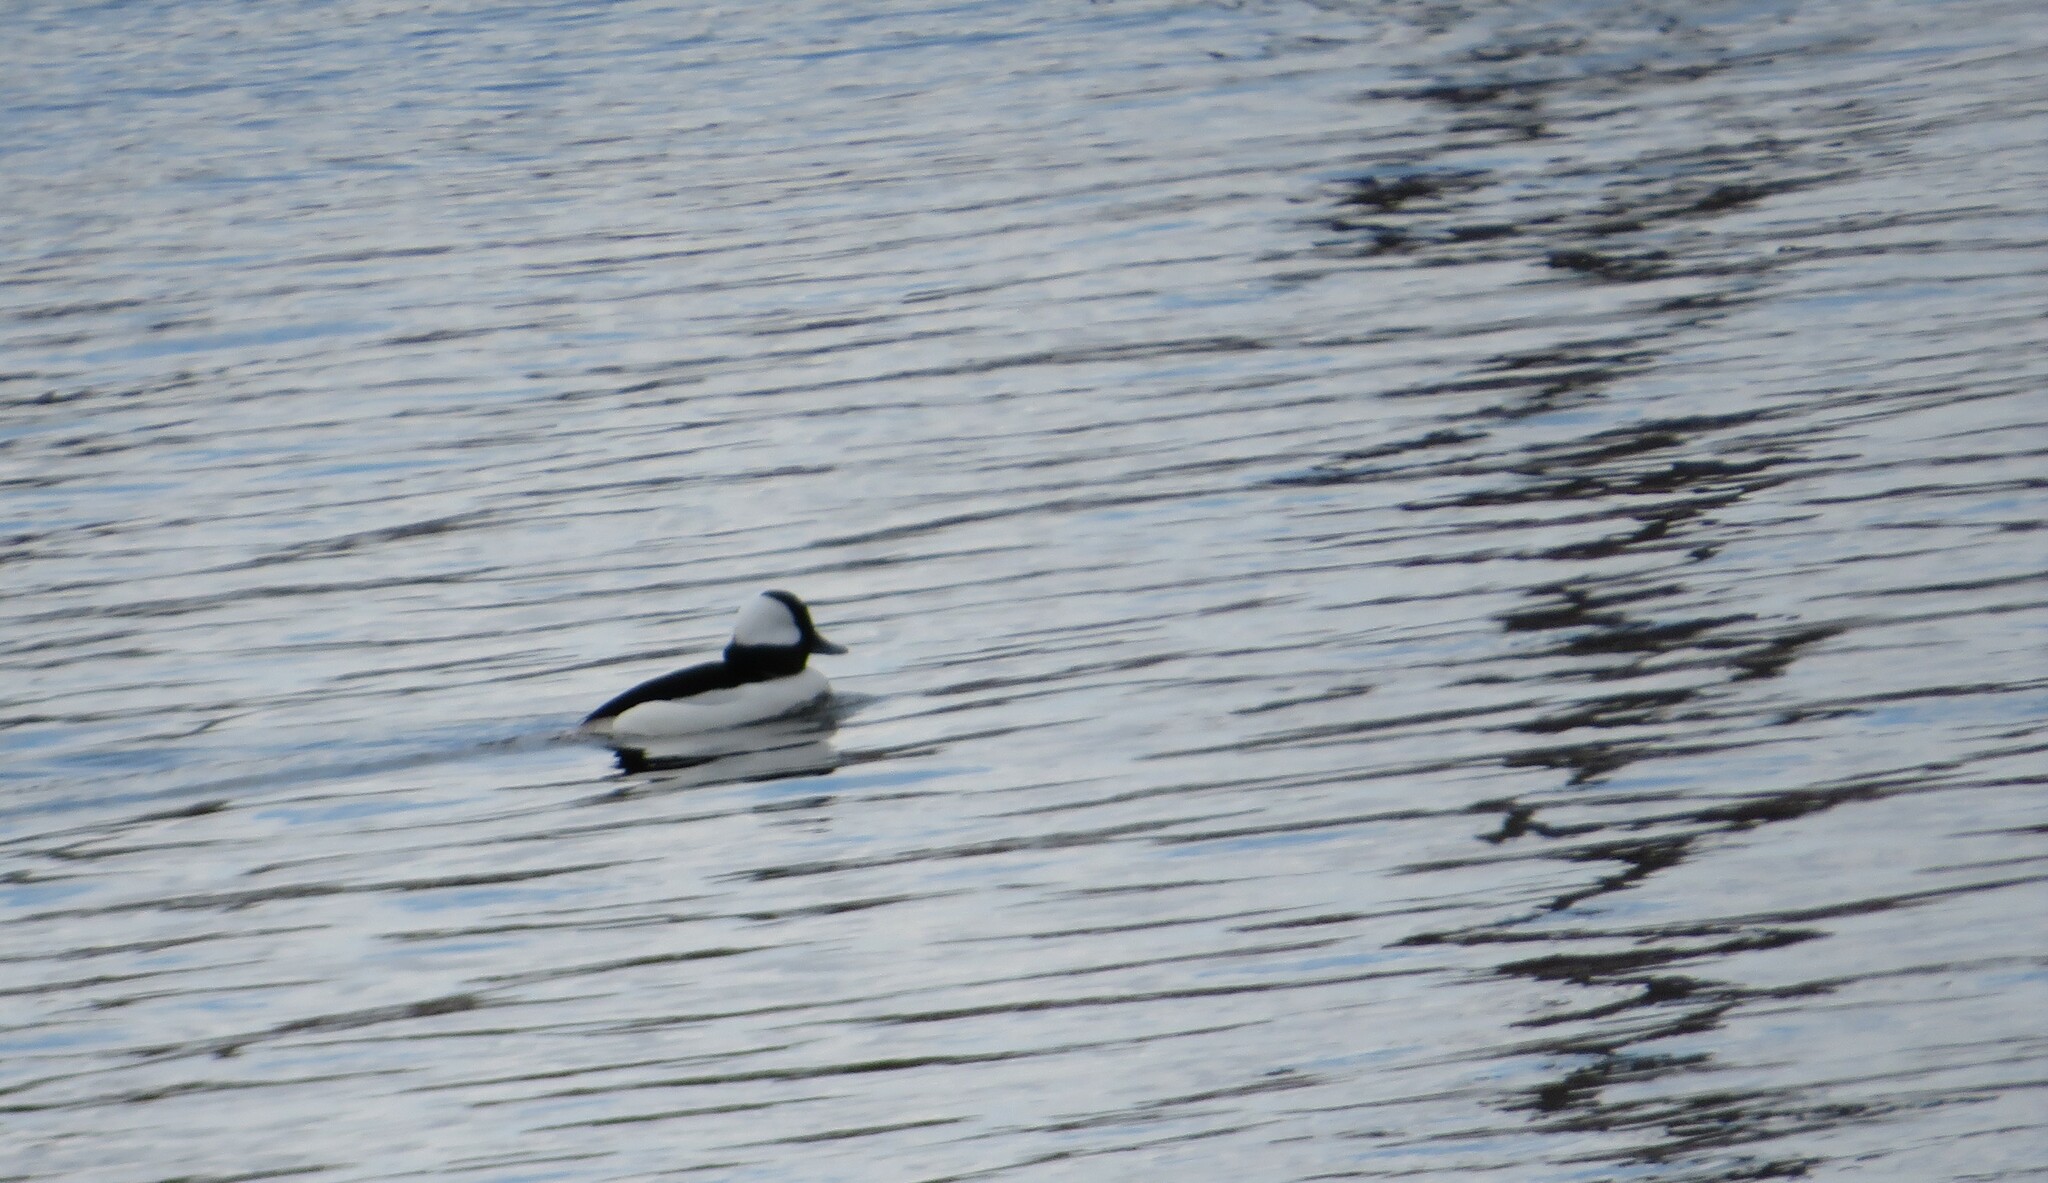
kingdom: Animalia
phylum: Chordata
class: Aves
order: Anseriformes
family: Anatidae
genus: Bucephala
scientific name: Bucephala albeola
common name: Bufflehead
